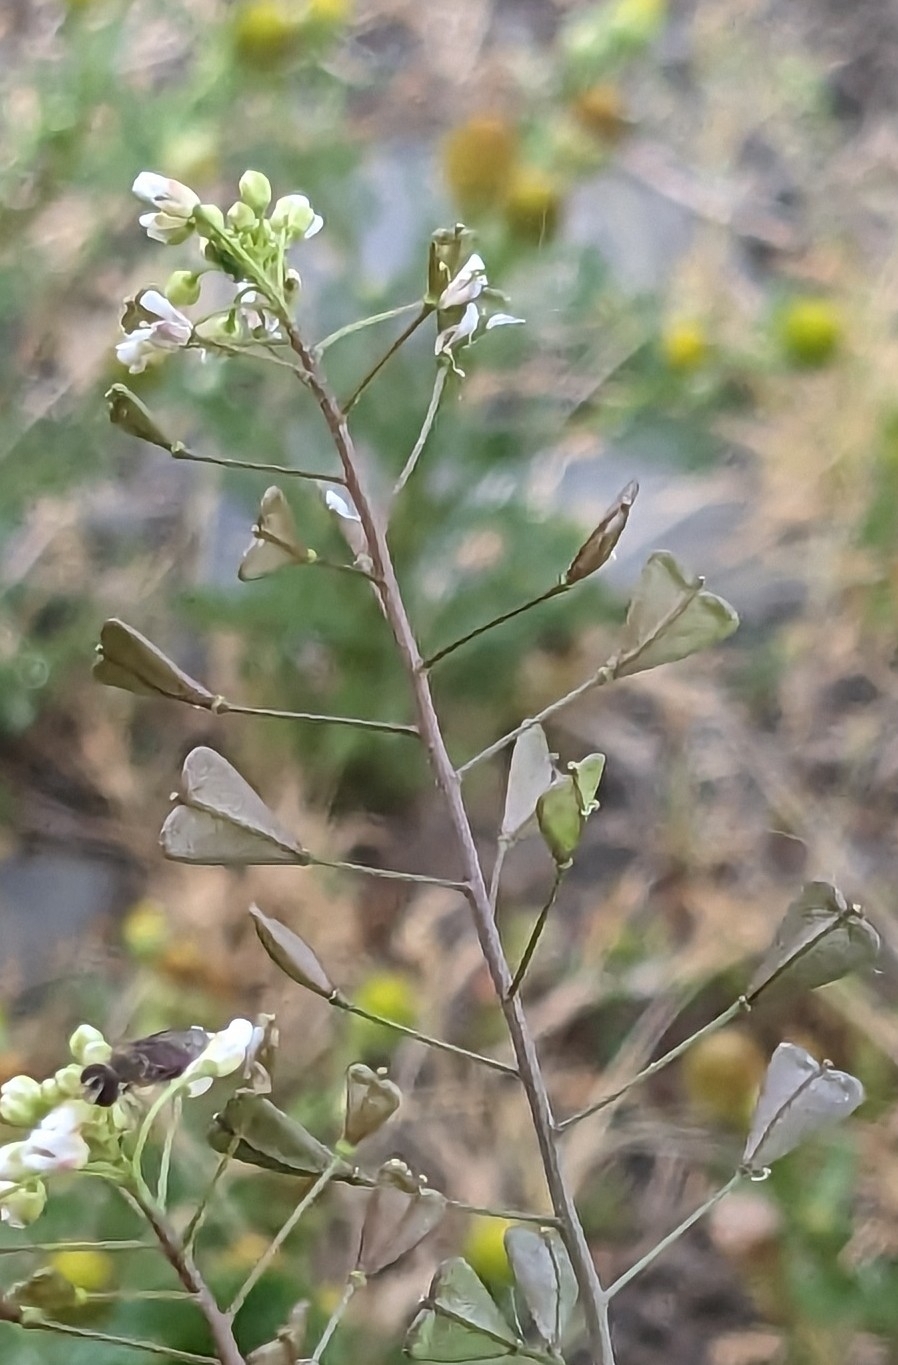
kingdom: Plantae
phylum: Tracheophyta
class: Magnoliopsida
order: Brassicales
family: Brassicaceae
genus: Capsella
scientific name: Capsella bursa-pastoris
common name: Shepherd's purse
